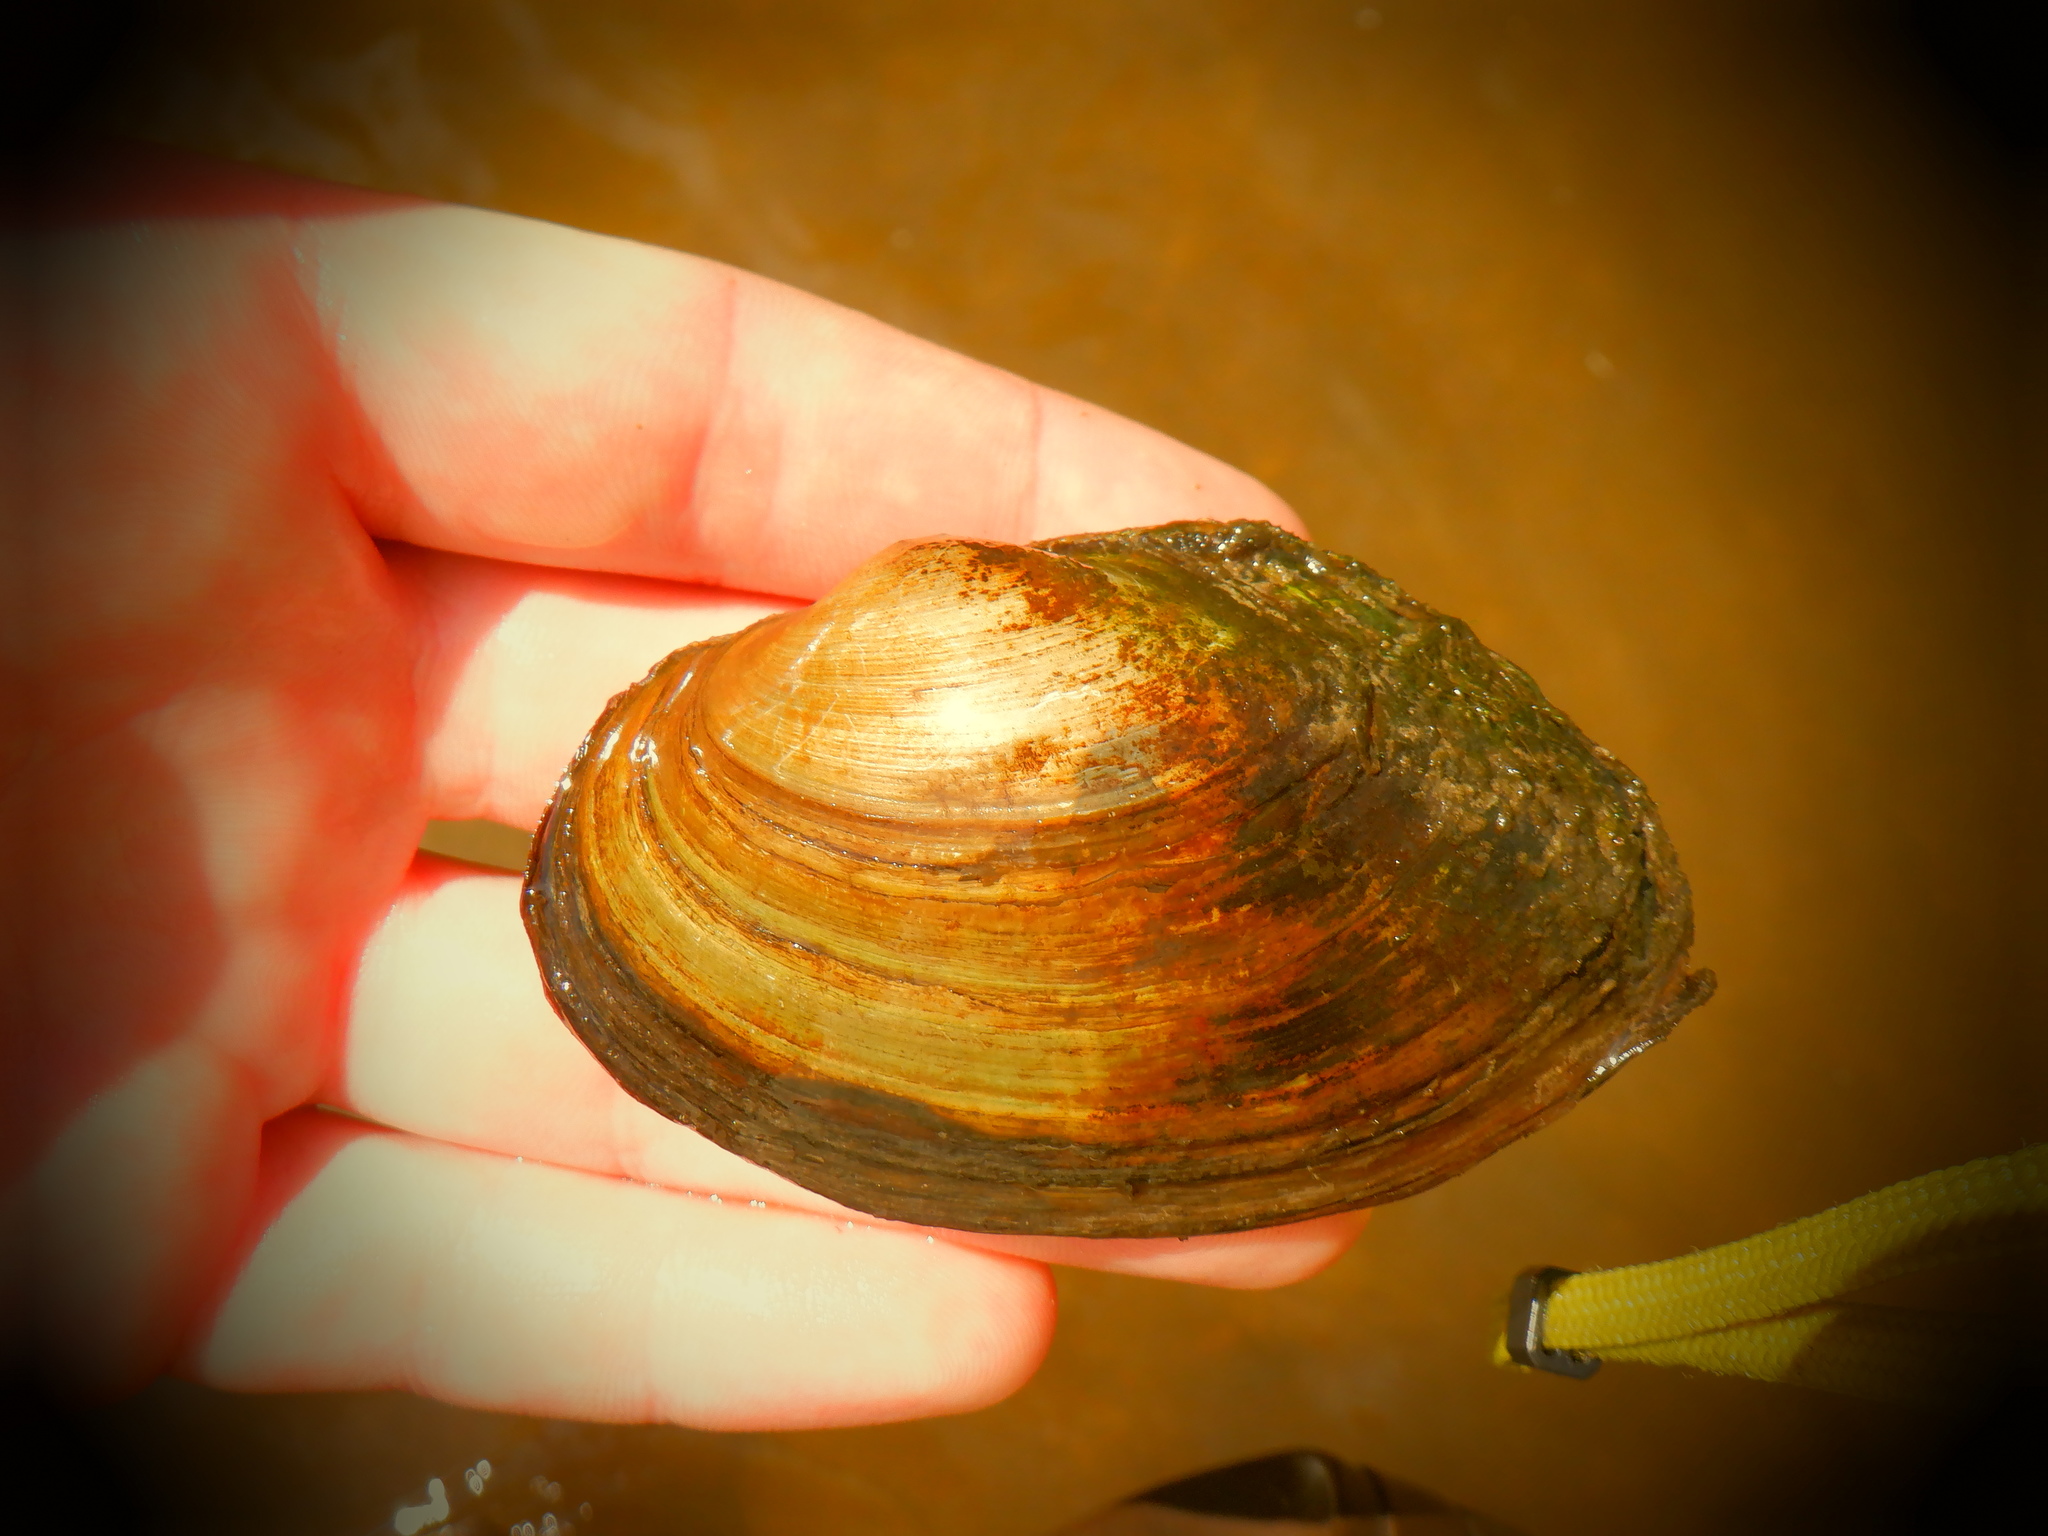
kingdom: Animalia
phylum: Mollusca
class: Bivalvia
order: Unionida
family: Unionidae
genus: Pyganodon
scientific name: Pyganodon grandis
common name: Giant floater
